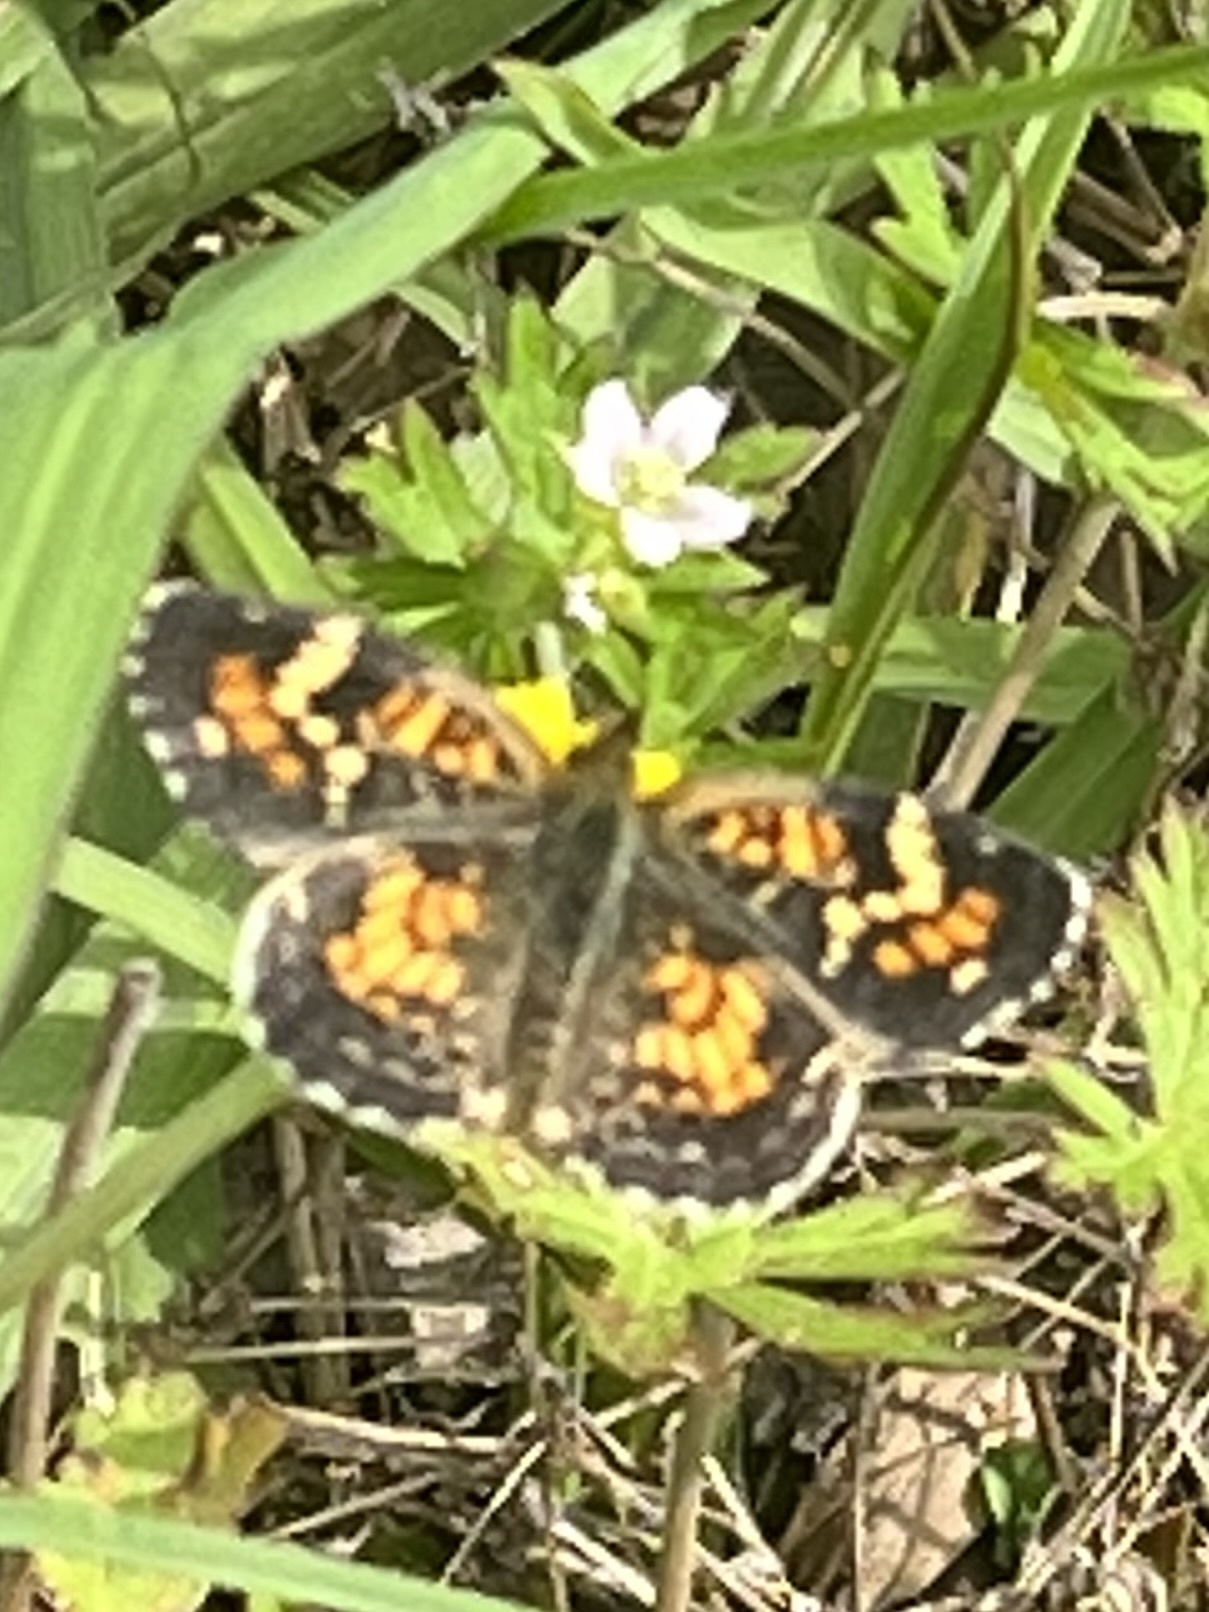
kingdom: Animalia
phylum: Arthropoda
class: Insecta
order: Lepidoptera
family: Nymphalidae
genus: Phyciodes
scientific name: Phyciodes phaon
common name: Phaon crescent
